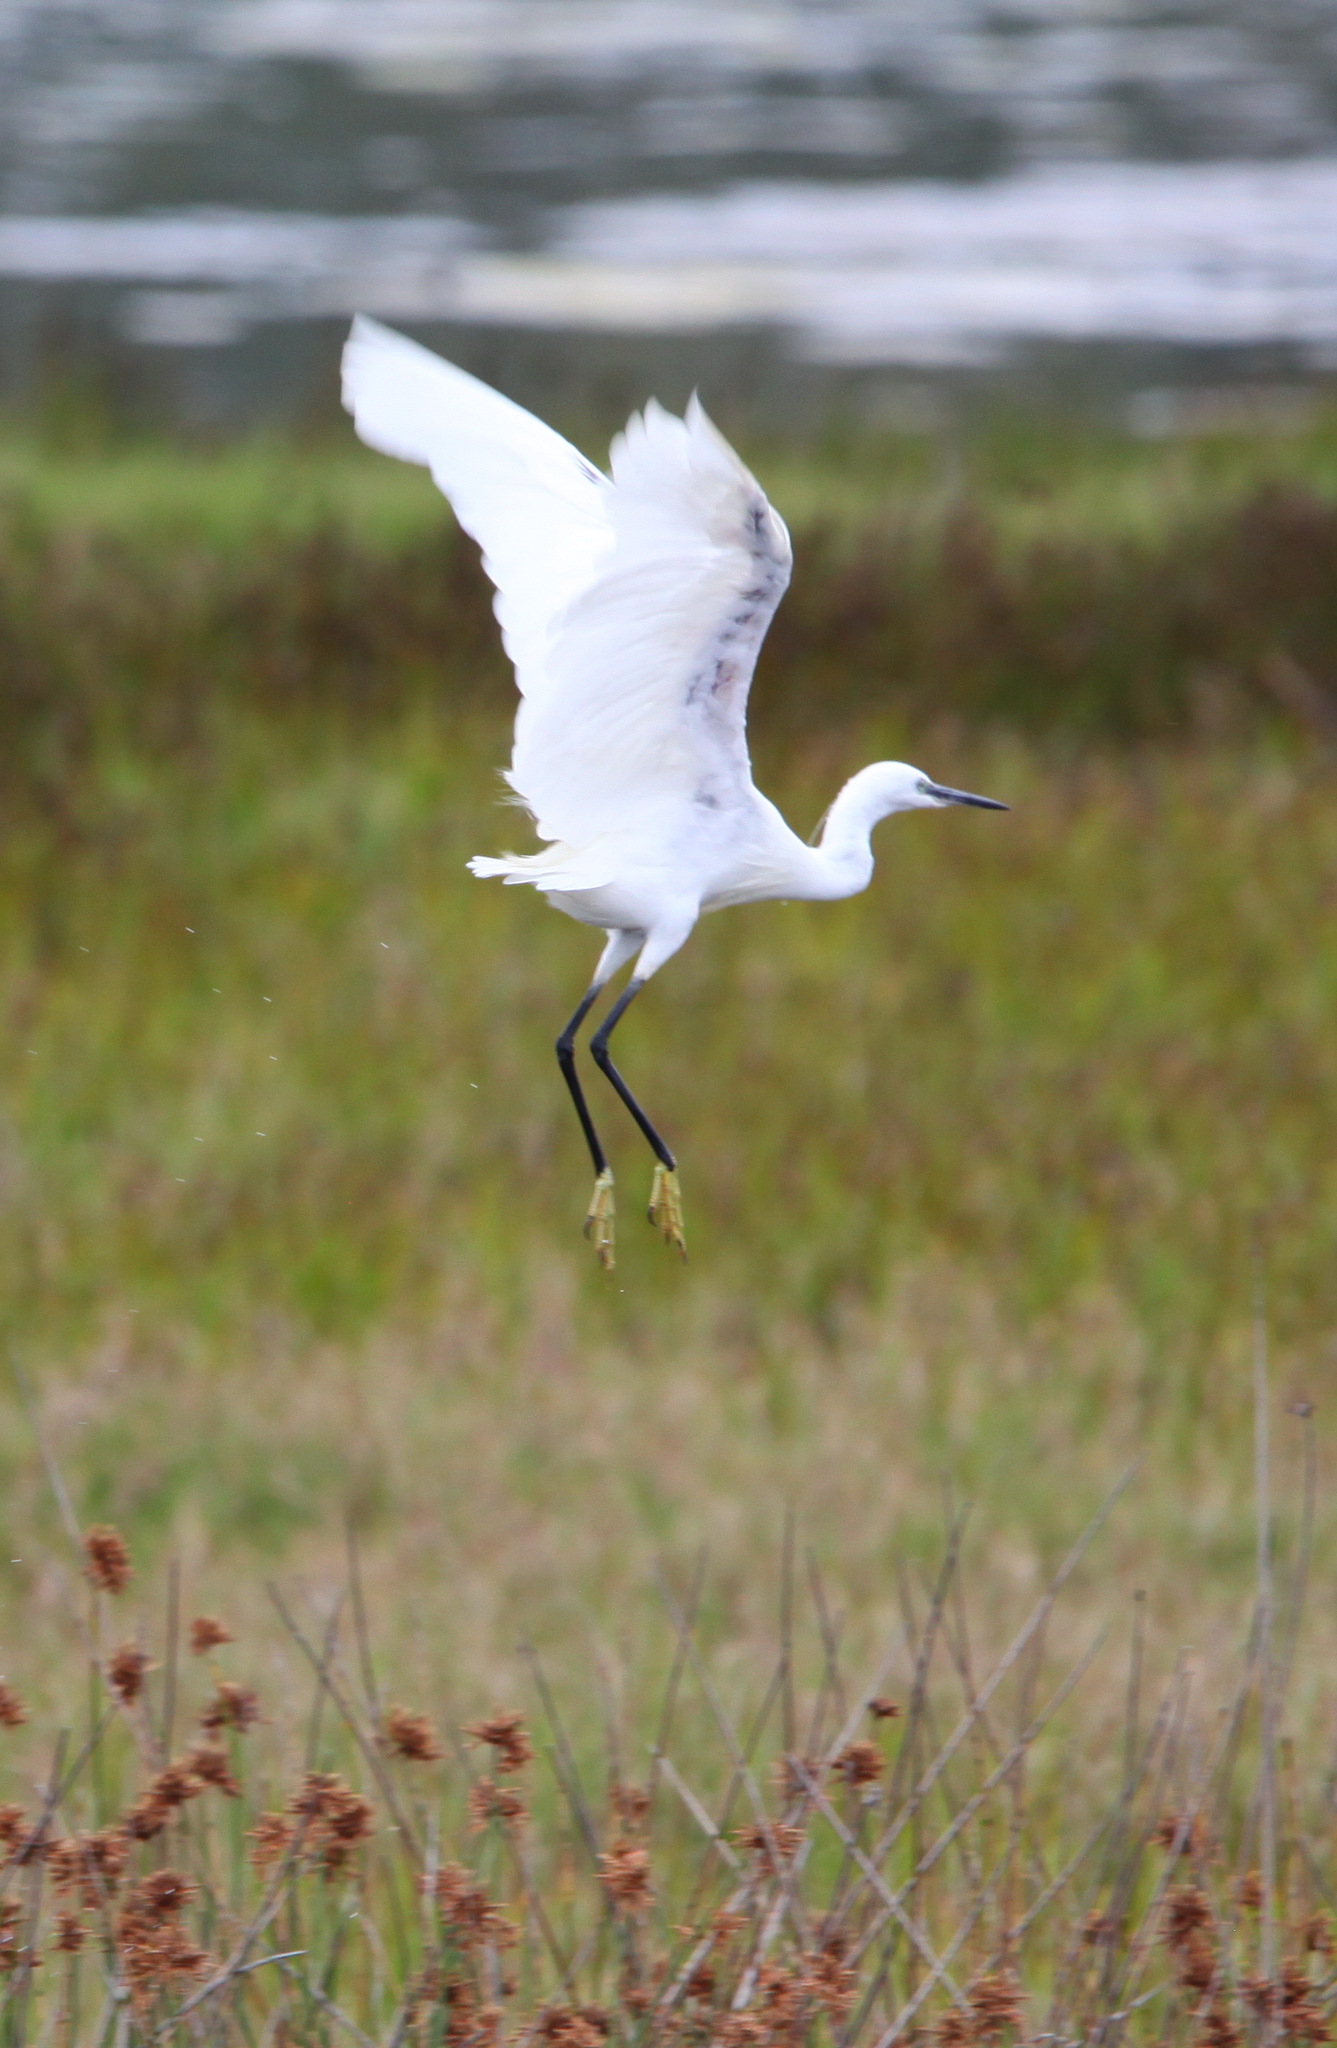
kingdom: Animalia
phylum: Chordata
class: Aves
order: Pelecaniformes
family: Ardeidae
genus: Egretta
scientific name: Egretta garzetta
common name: Little egret
